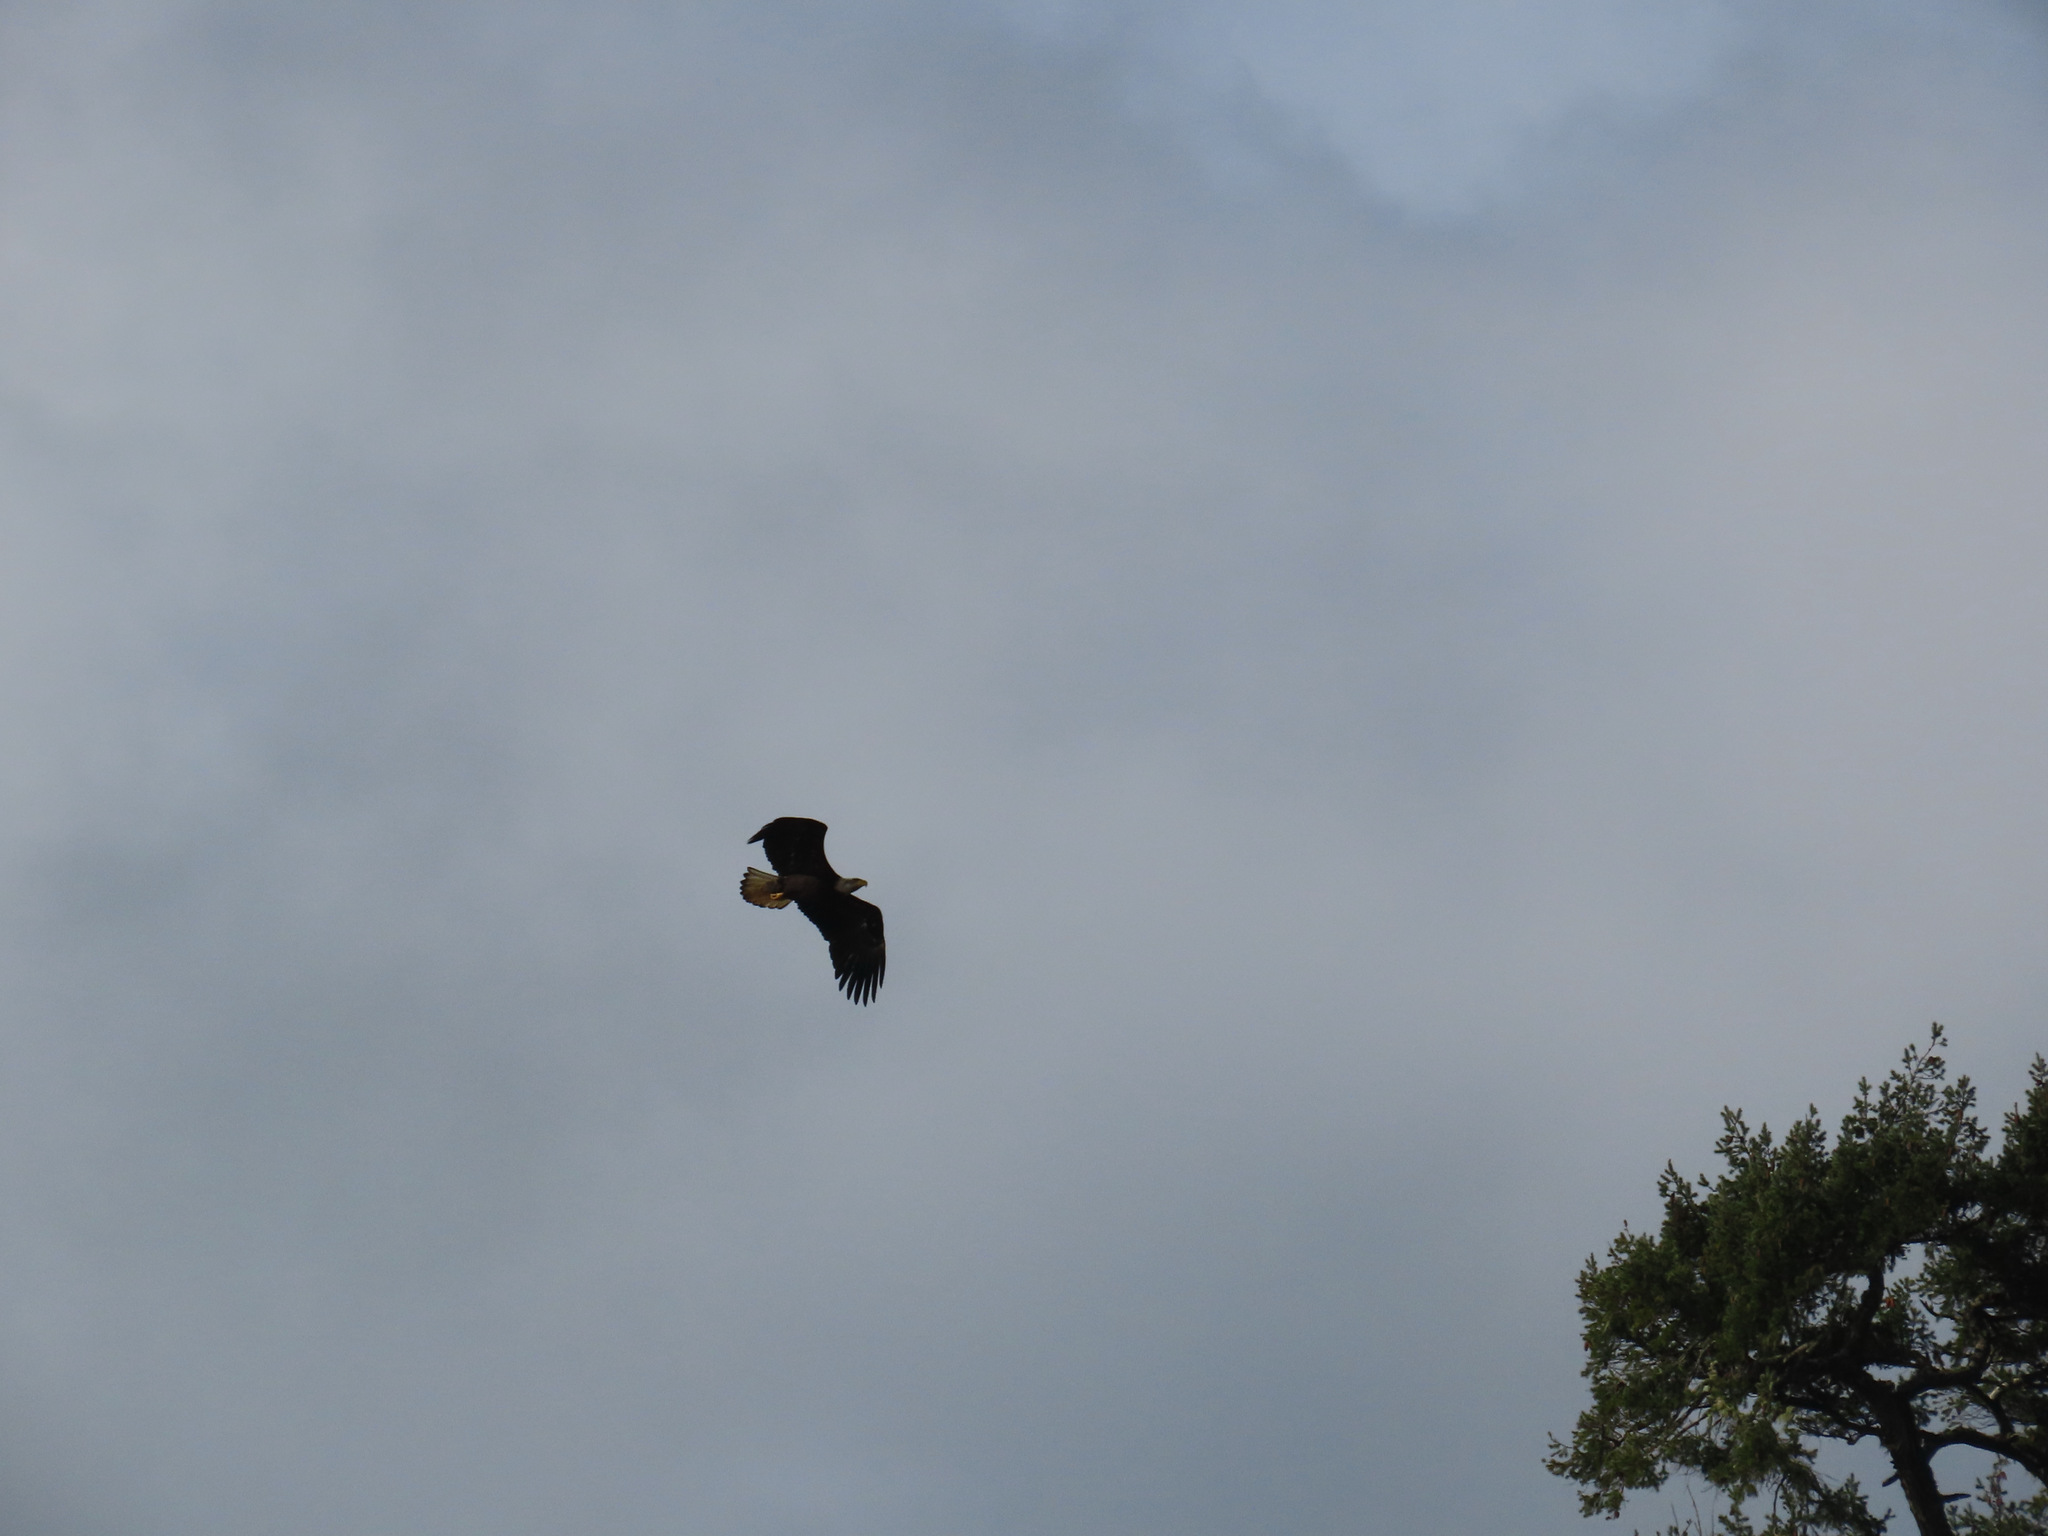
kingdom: Animalia
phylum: Chordata
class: Aves
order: Accipitriformes
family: Accipitridae
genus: Haliaeetus
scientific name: Haliaeetus leucocephalus
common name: Bald eagle
